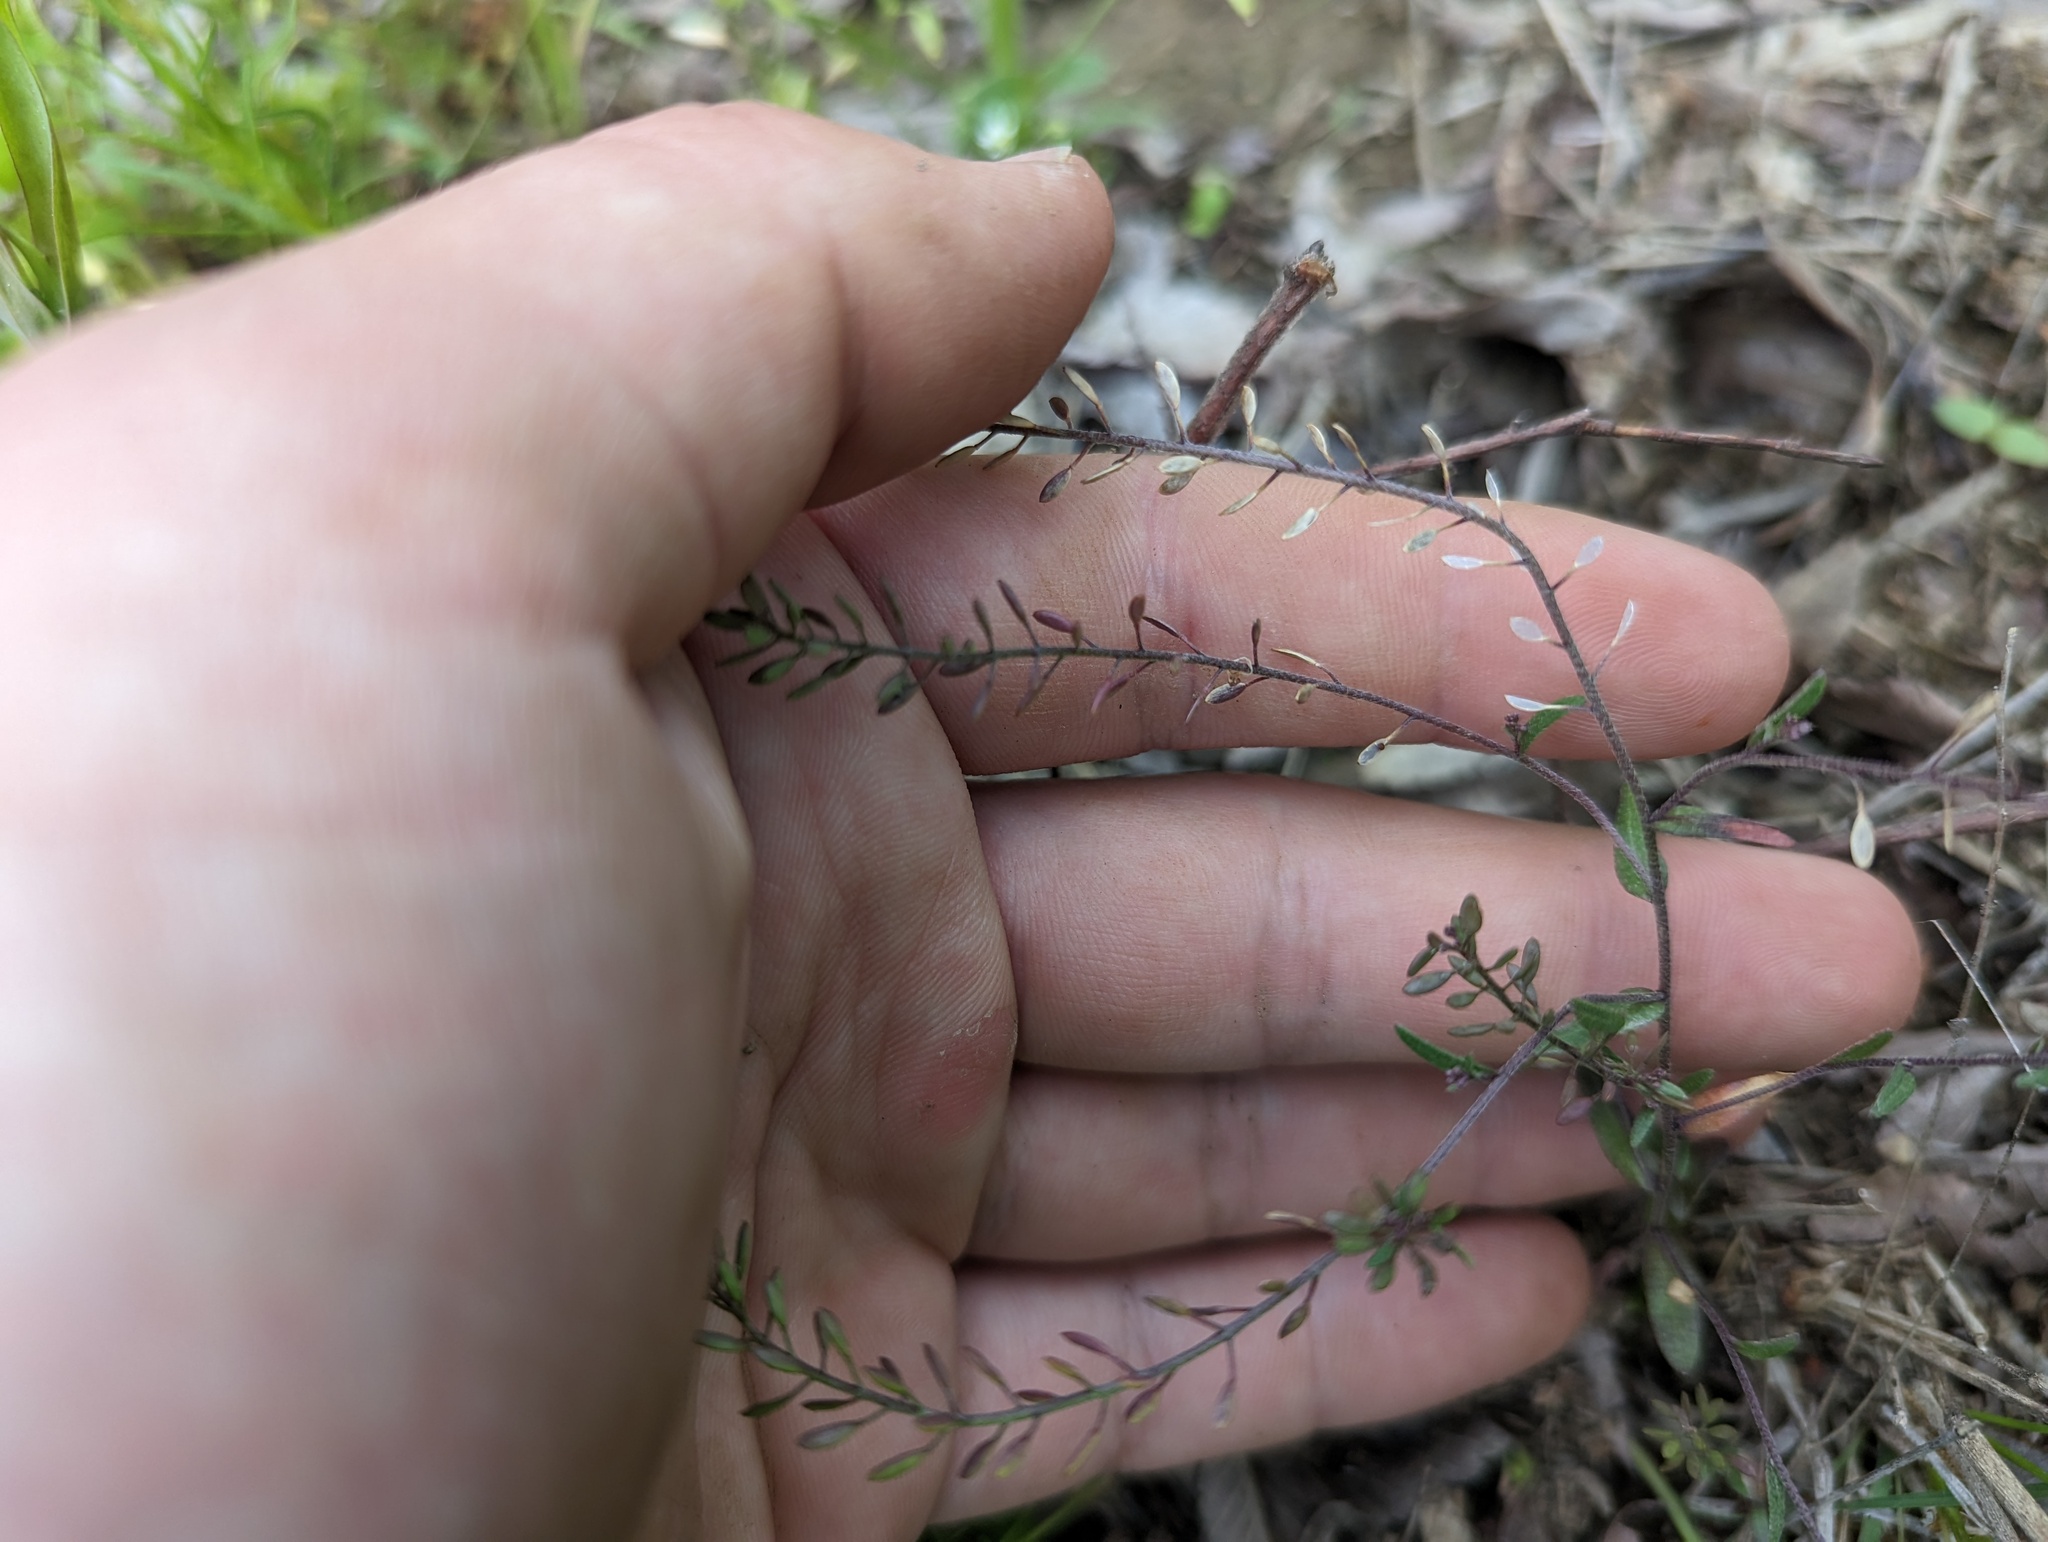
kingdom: Plantae
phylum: Tracheophyta
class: Magnoliopsida
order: Brassicales
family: Brassicaceae
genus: Abdra
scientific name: Abdra brachycarpa
